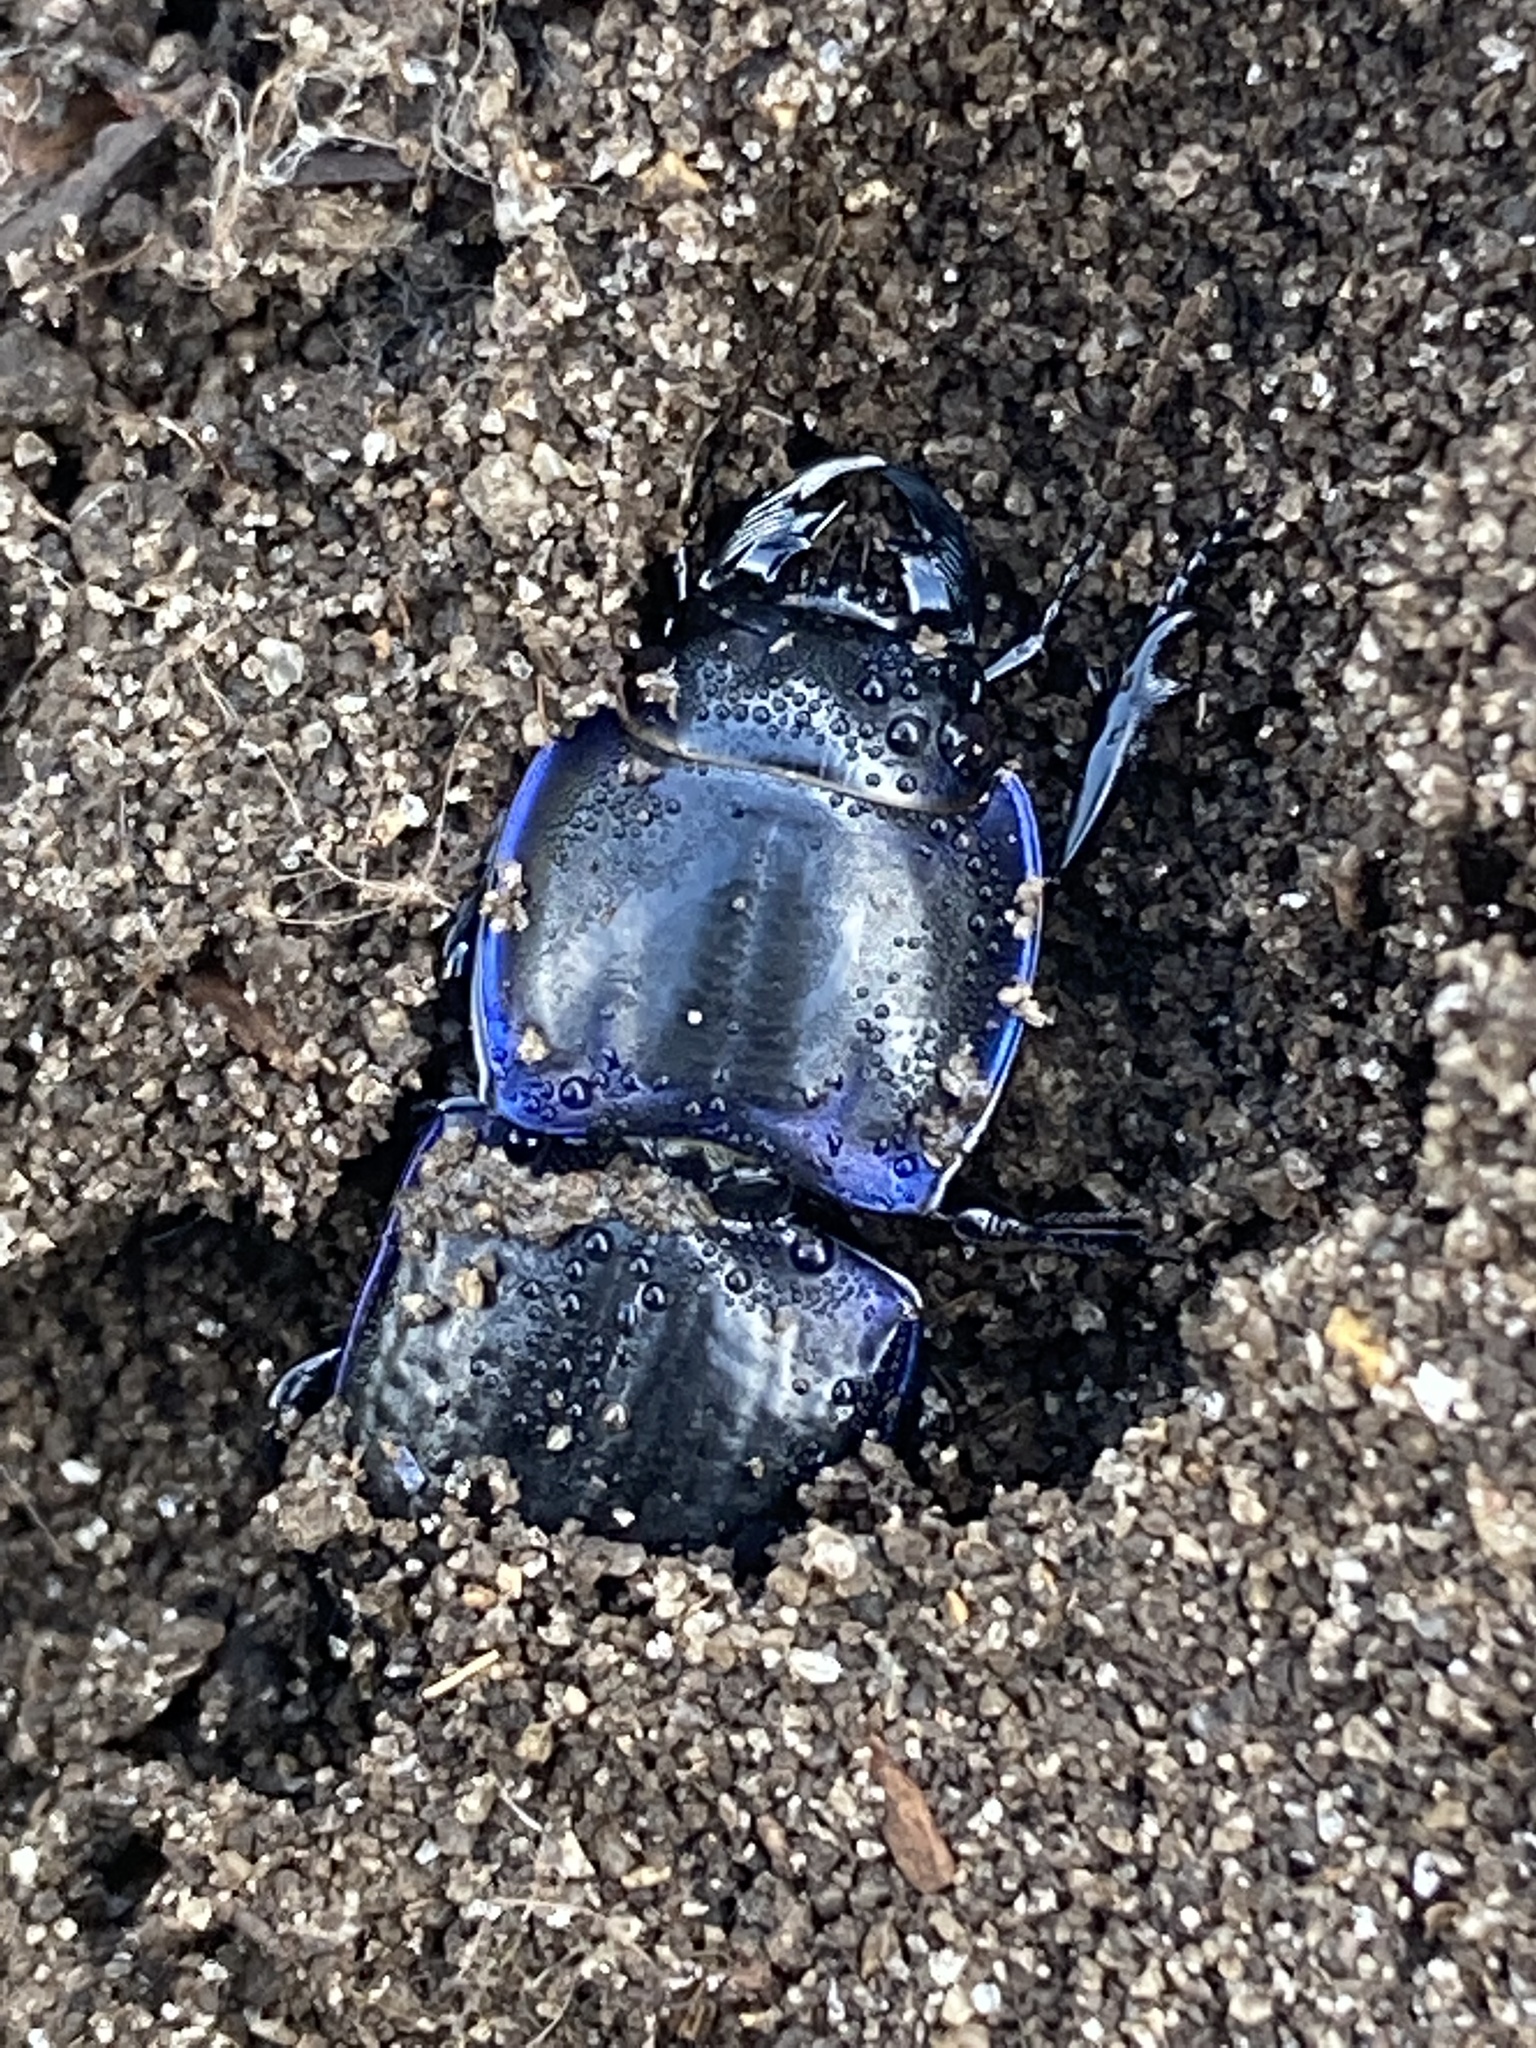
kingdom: Animalia
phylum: Arthropoda
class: Insecta
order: Coleoptera
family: Carabidae
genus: Pasimachus
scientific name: Pasimachus sublaevis
